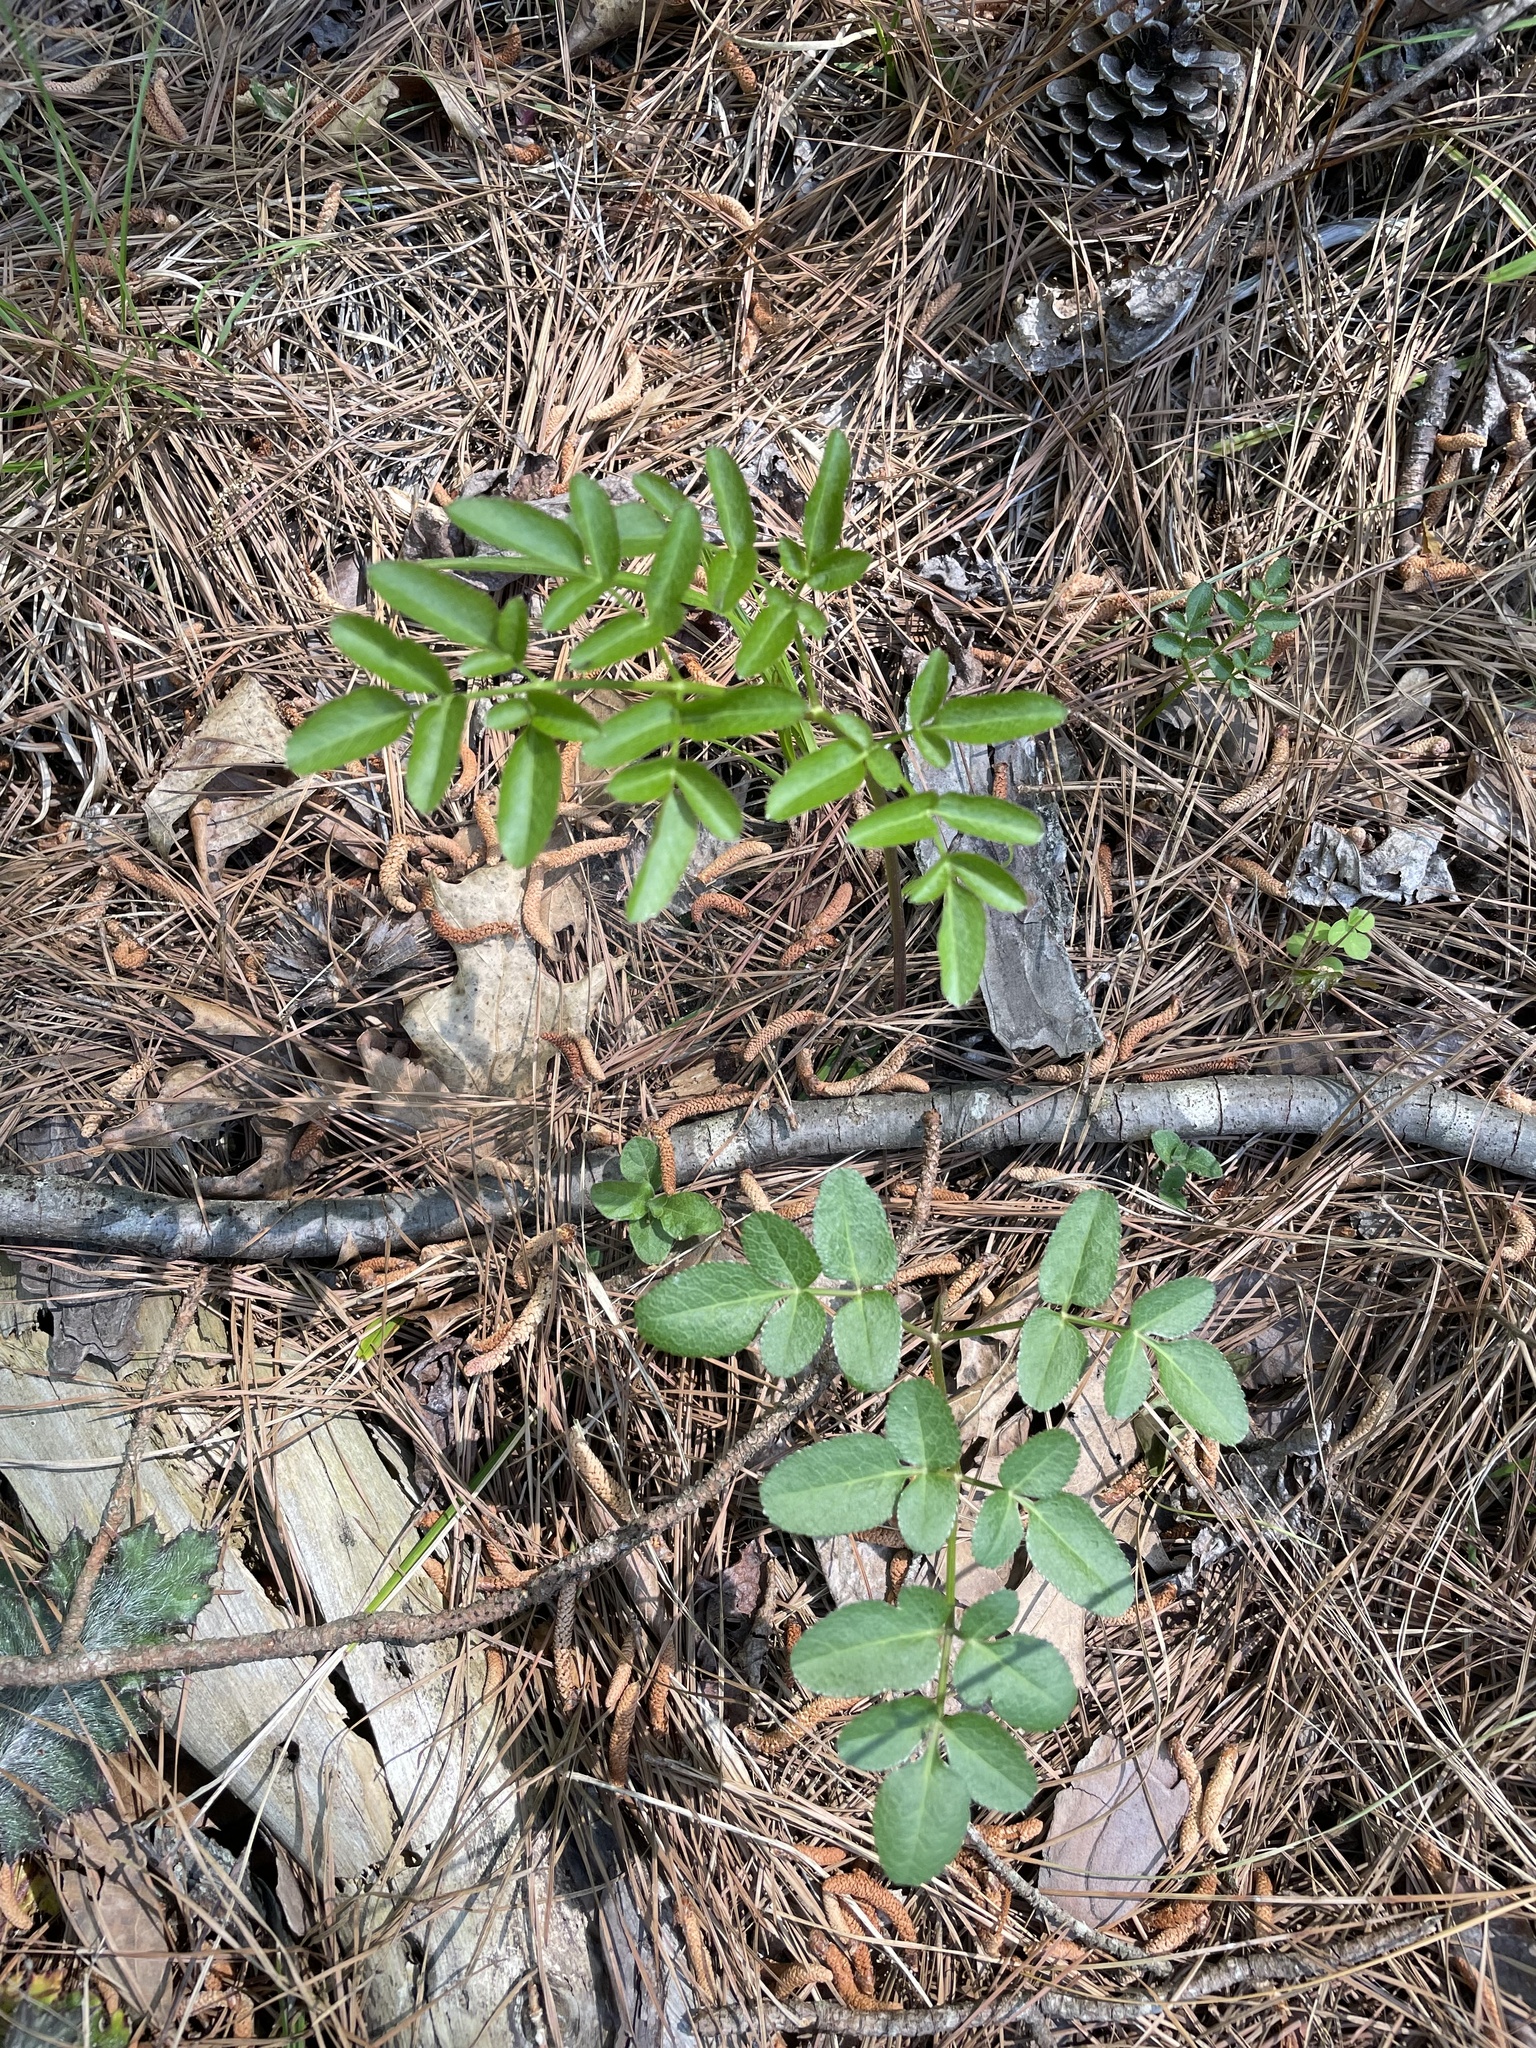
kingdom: Plantae
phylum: Tracheophyta
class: Magnoliopsida
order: Apiales
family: Apiaceae
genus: Angelica
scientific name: Angelica venenosa
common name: Hairy angelica
